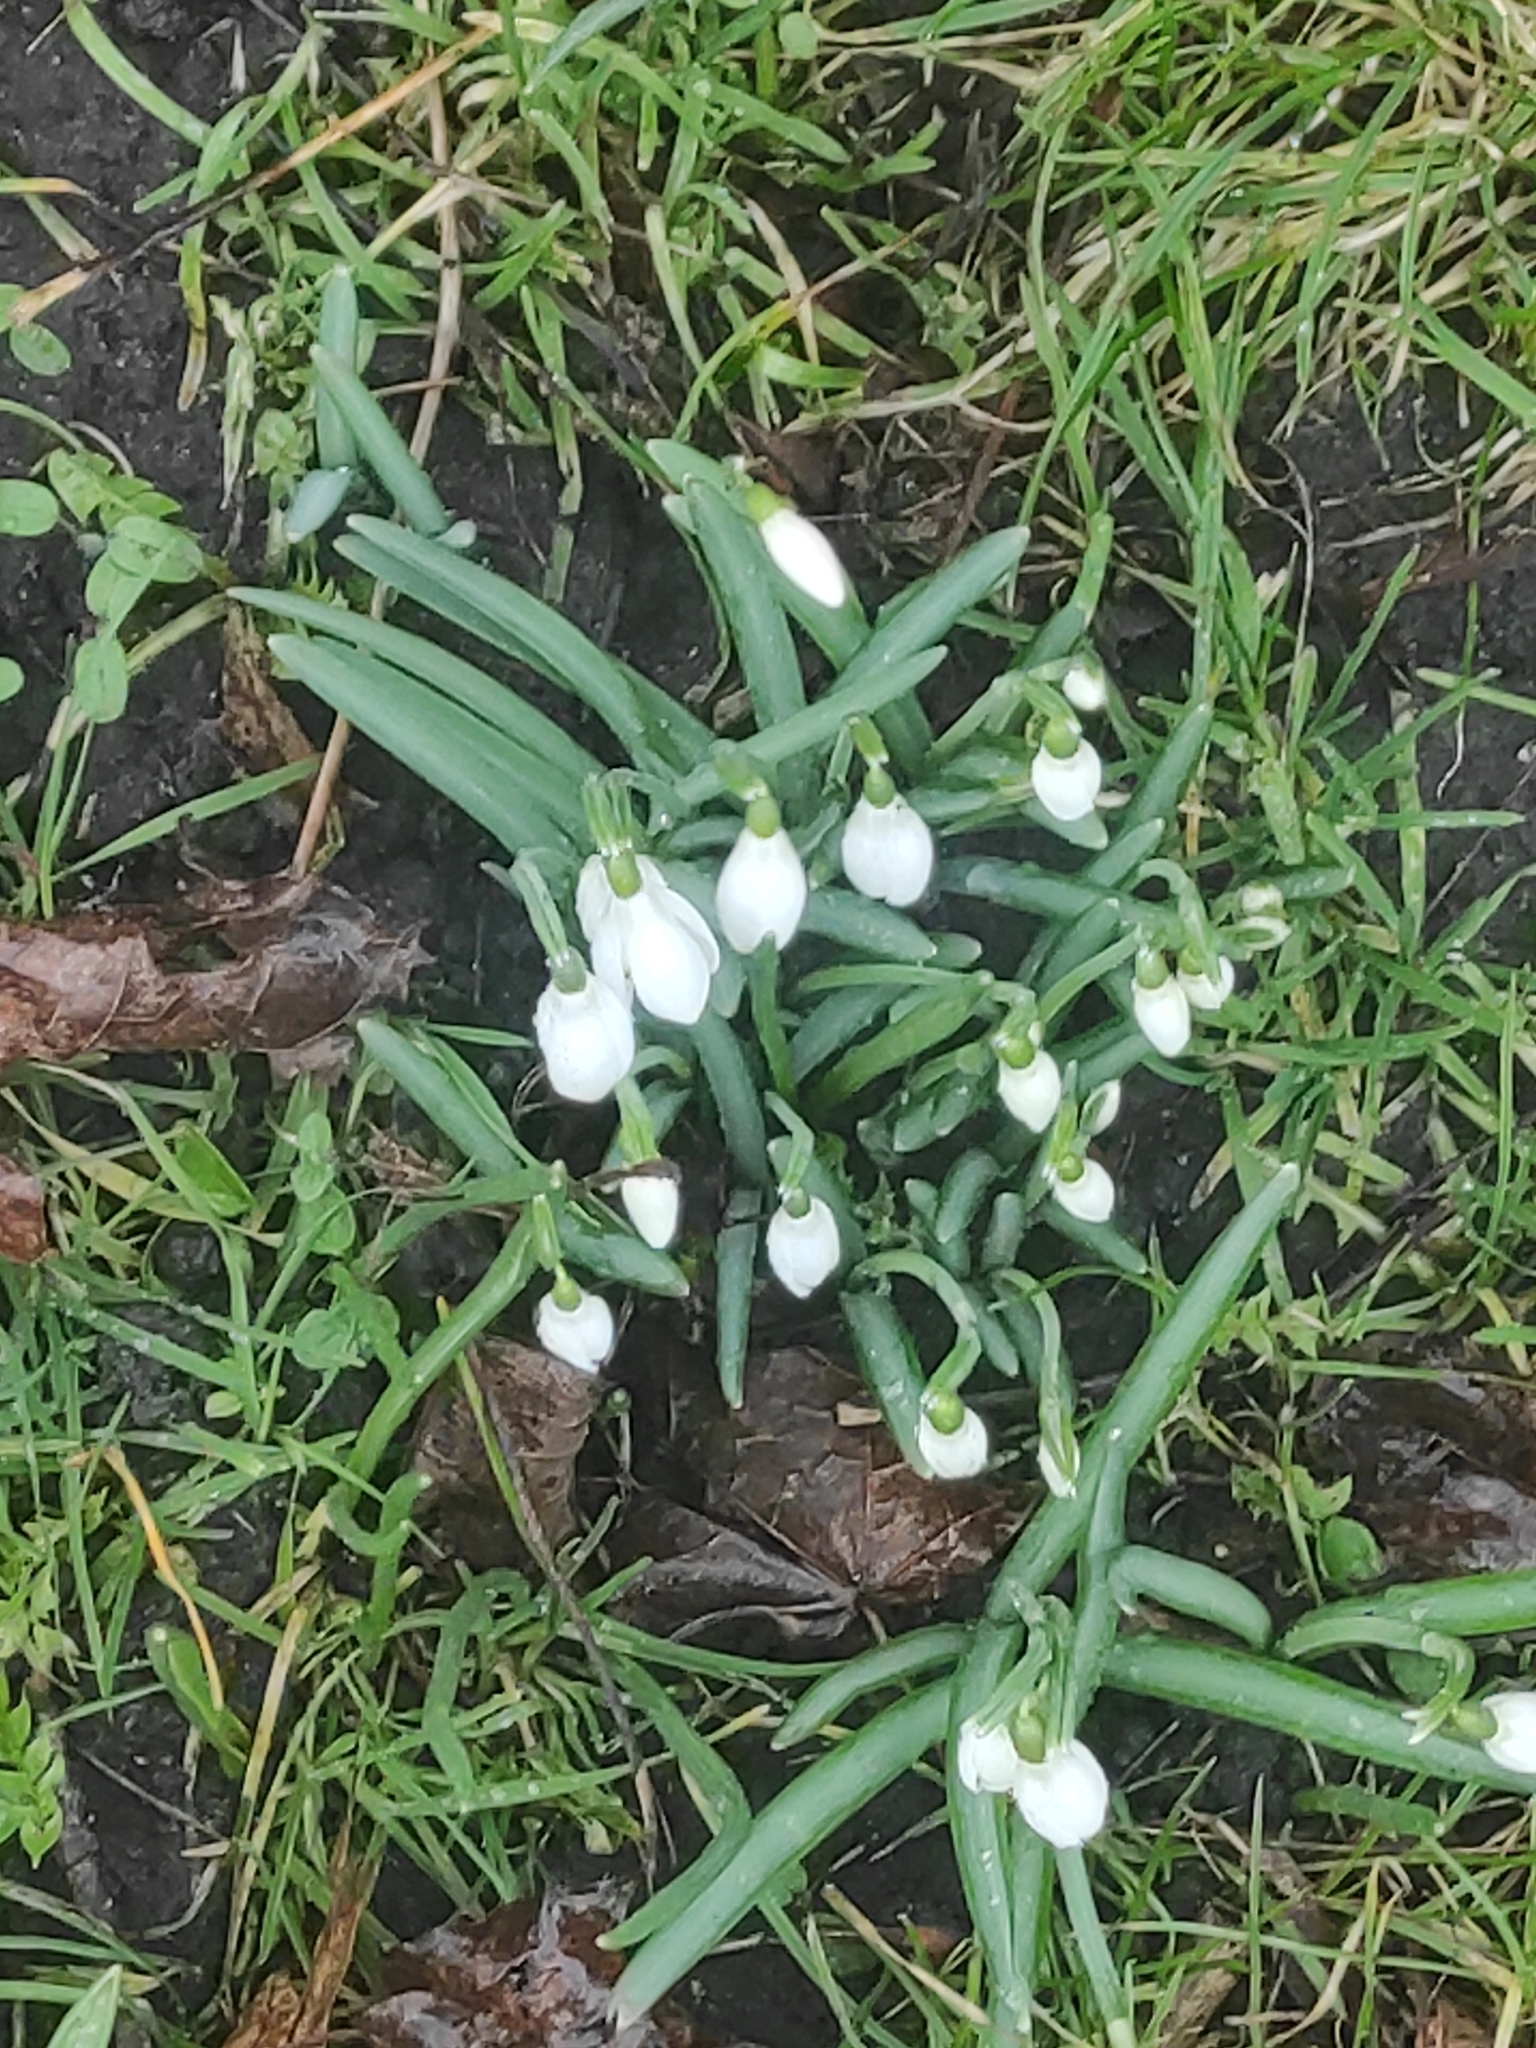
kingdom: Plantae
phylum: Tracheophyta
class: Liliopsida
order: Asparagales
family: Amaryllidaceae
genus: Galanthus
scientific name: Galanthus nivalis
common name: Snowdrop
